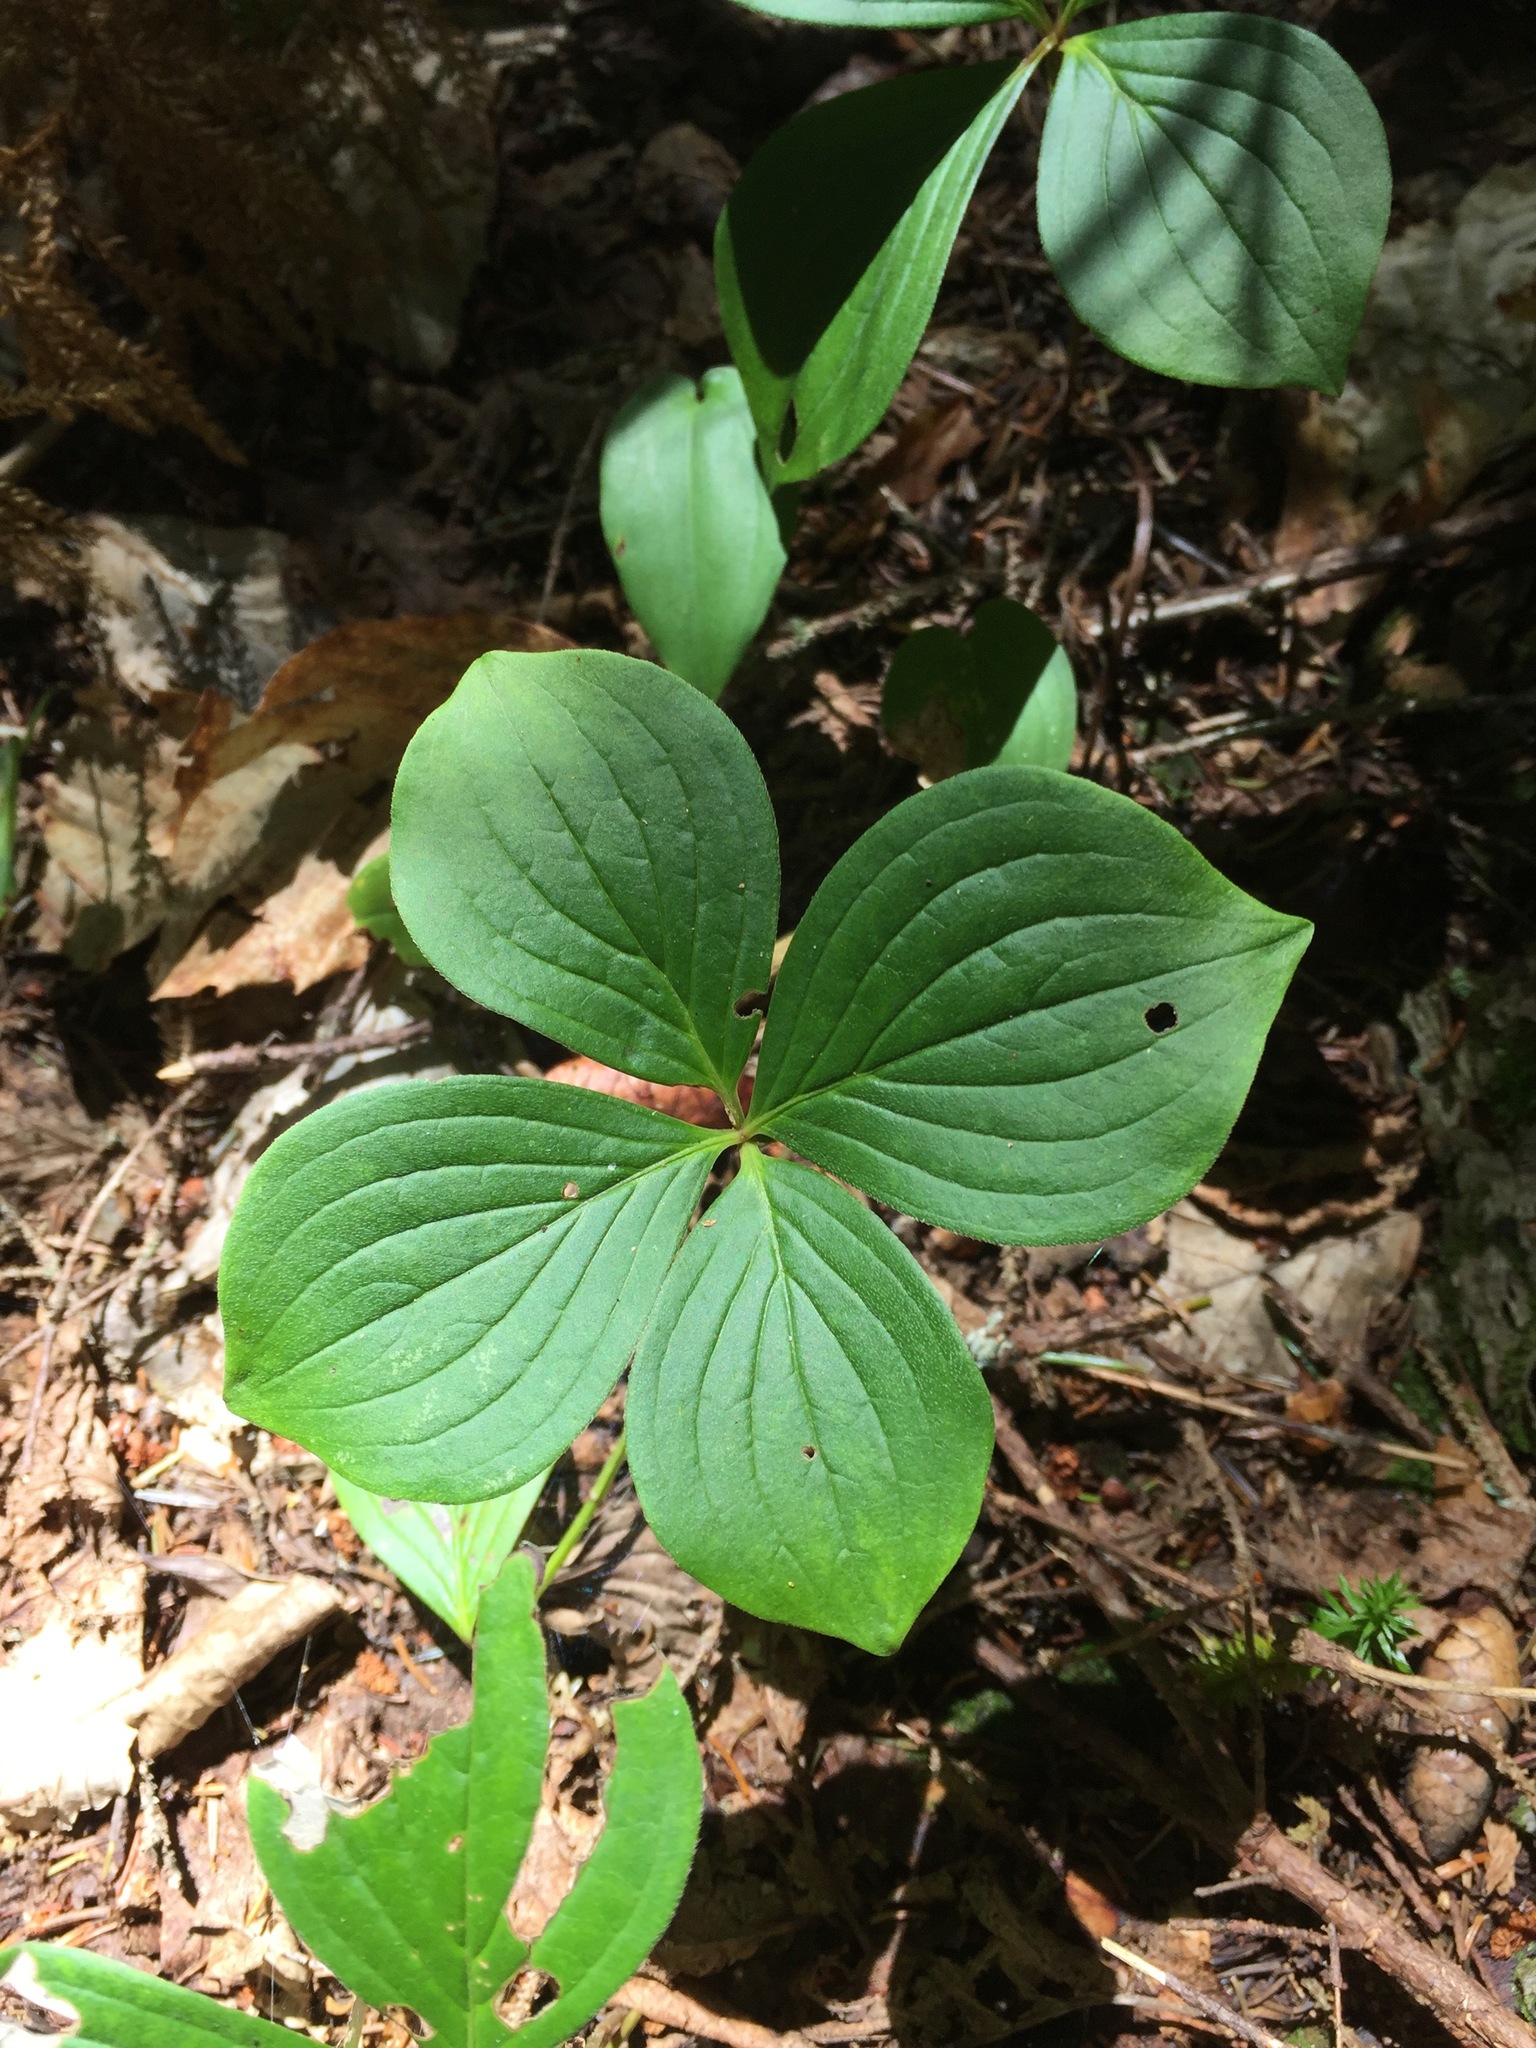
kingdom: Plantae
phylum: Tracheophyta
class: Magnoliopsida
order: Cornales
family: Cornaceae
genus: Cornus
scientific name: Cornus canadensis
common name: Creeping dogwood
